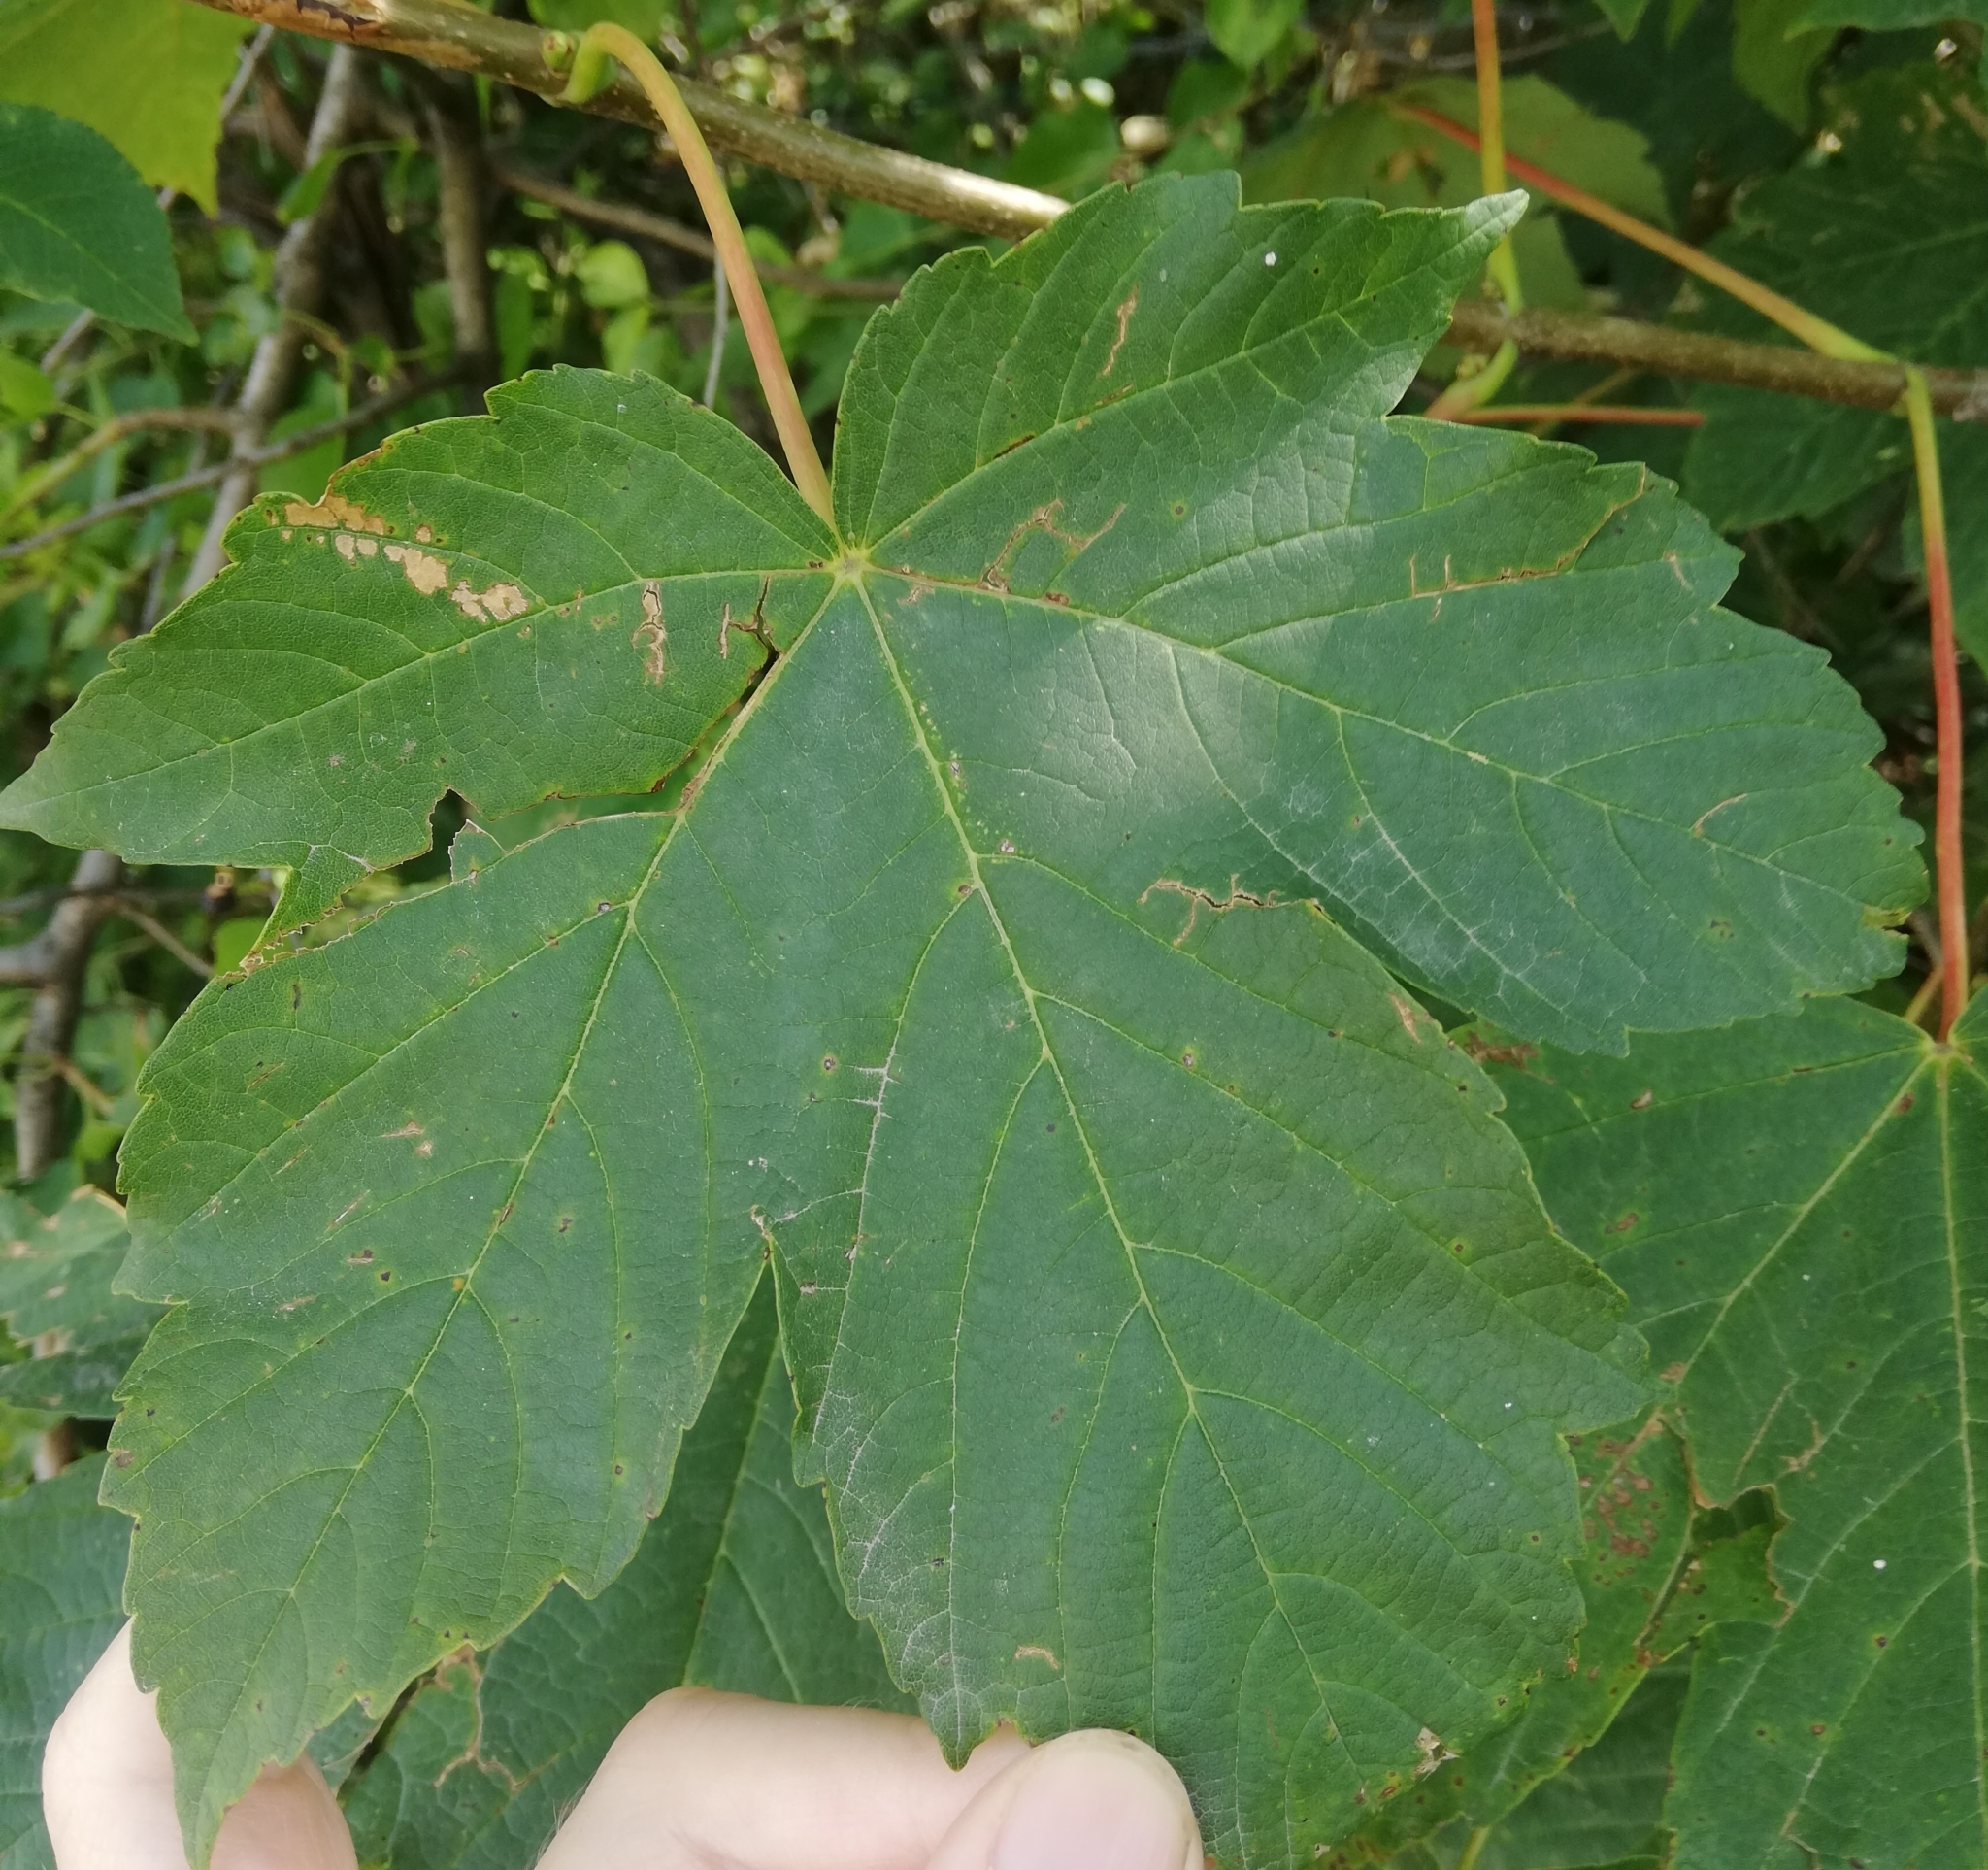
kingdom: Plantae
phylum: Tracheophyta
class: Magnoliopsida
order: Sapindales
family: Sapindaceae
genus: Acer
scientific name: Acer pseudoplatanus
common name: Sycamore
